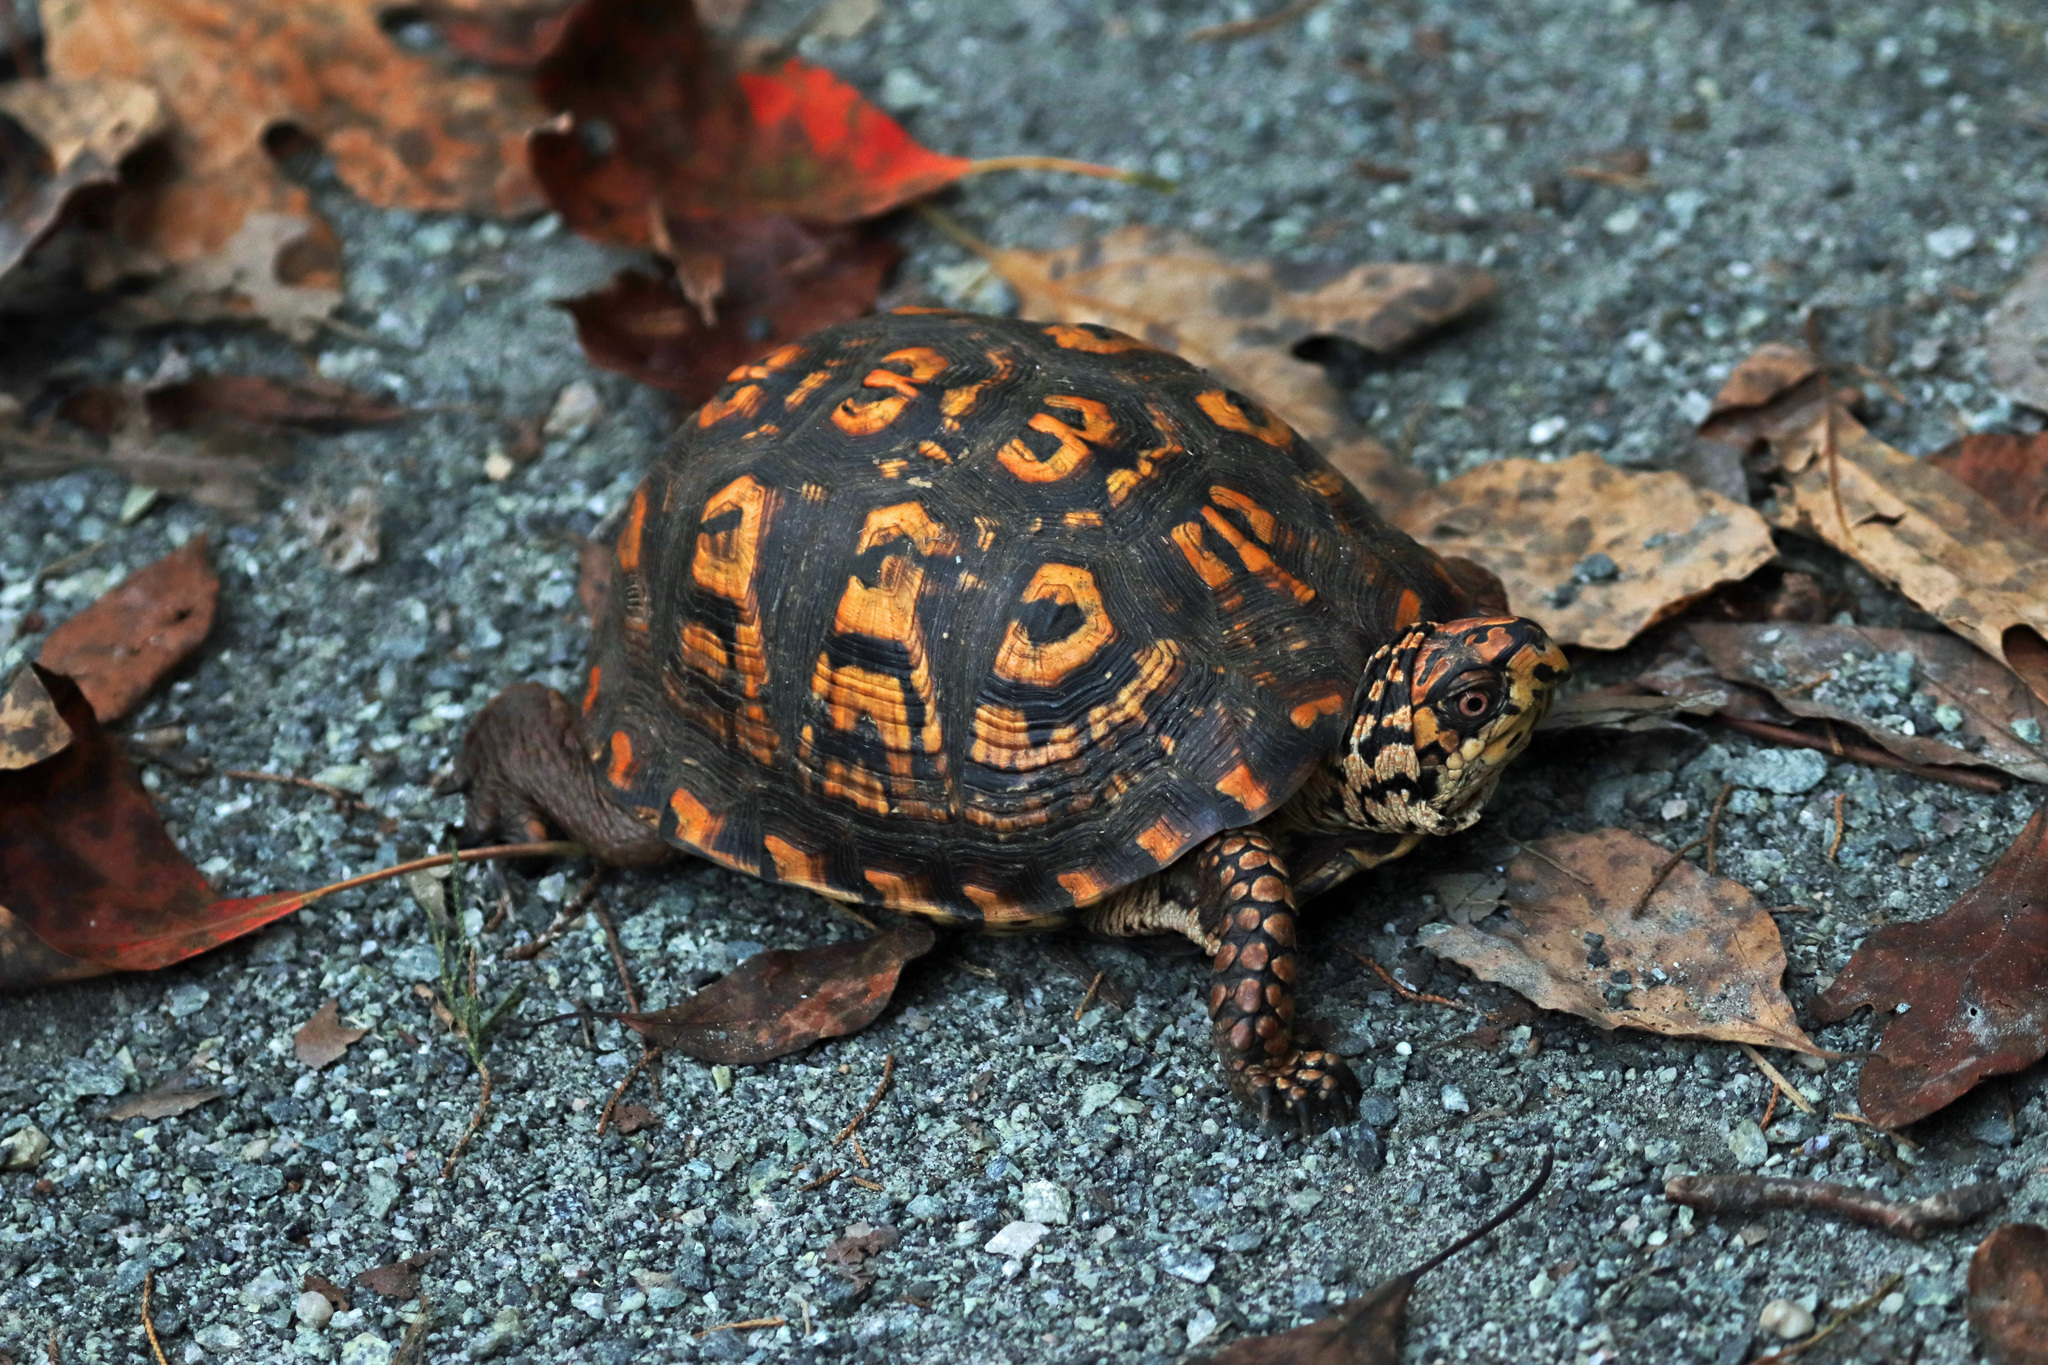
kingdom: Animalia
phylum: Chordata
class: Testudines
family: Emydidae
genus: Terrapene
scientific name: Terrapene carolina
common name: Common box turtle
